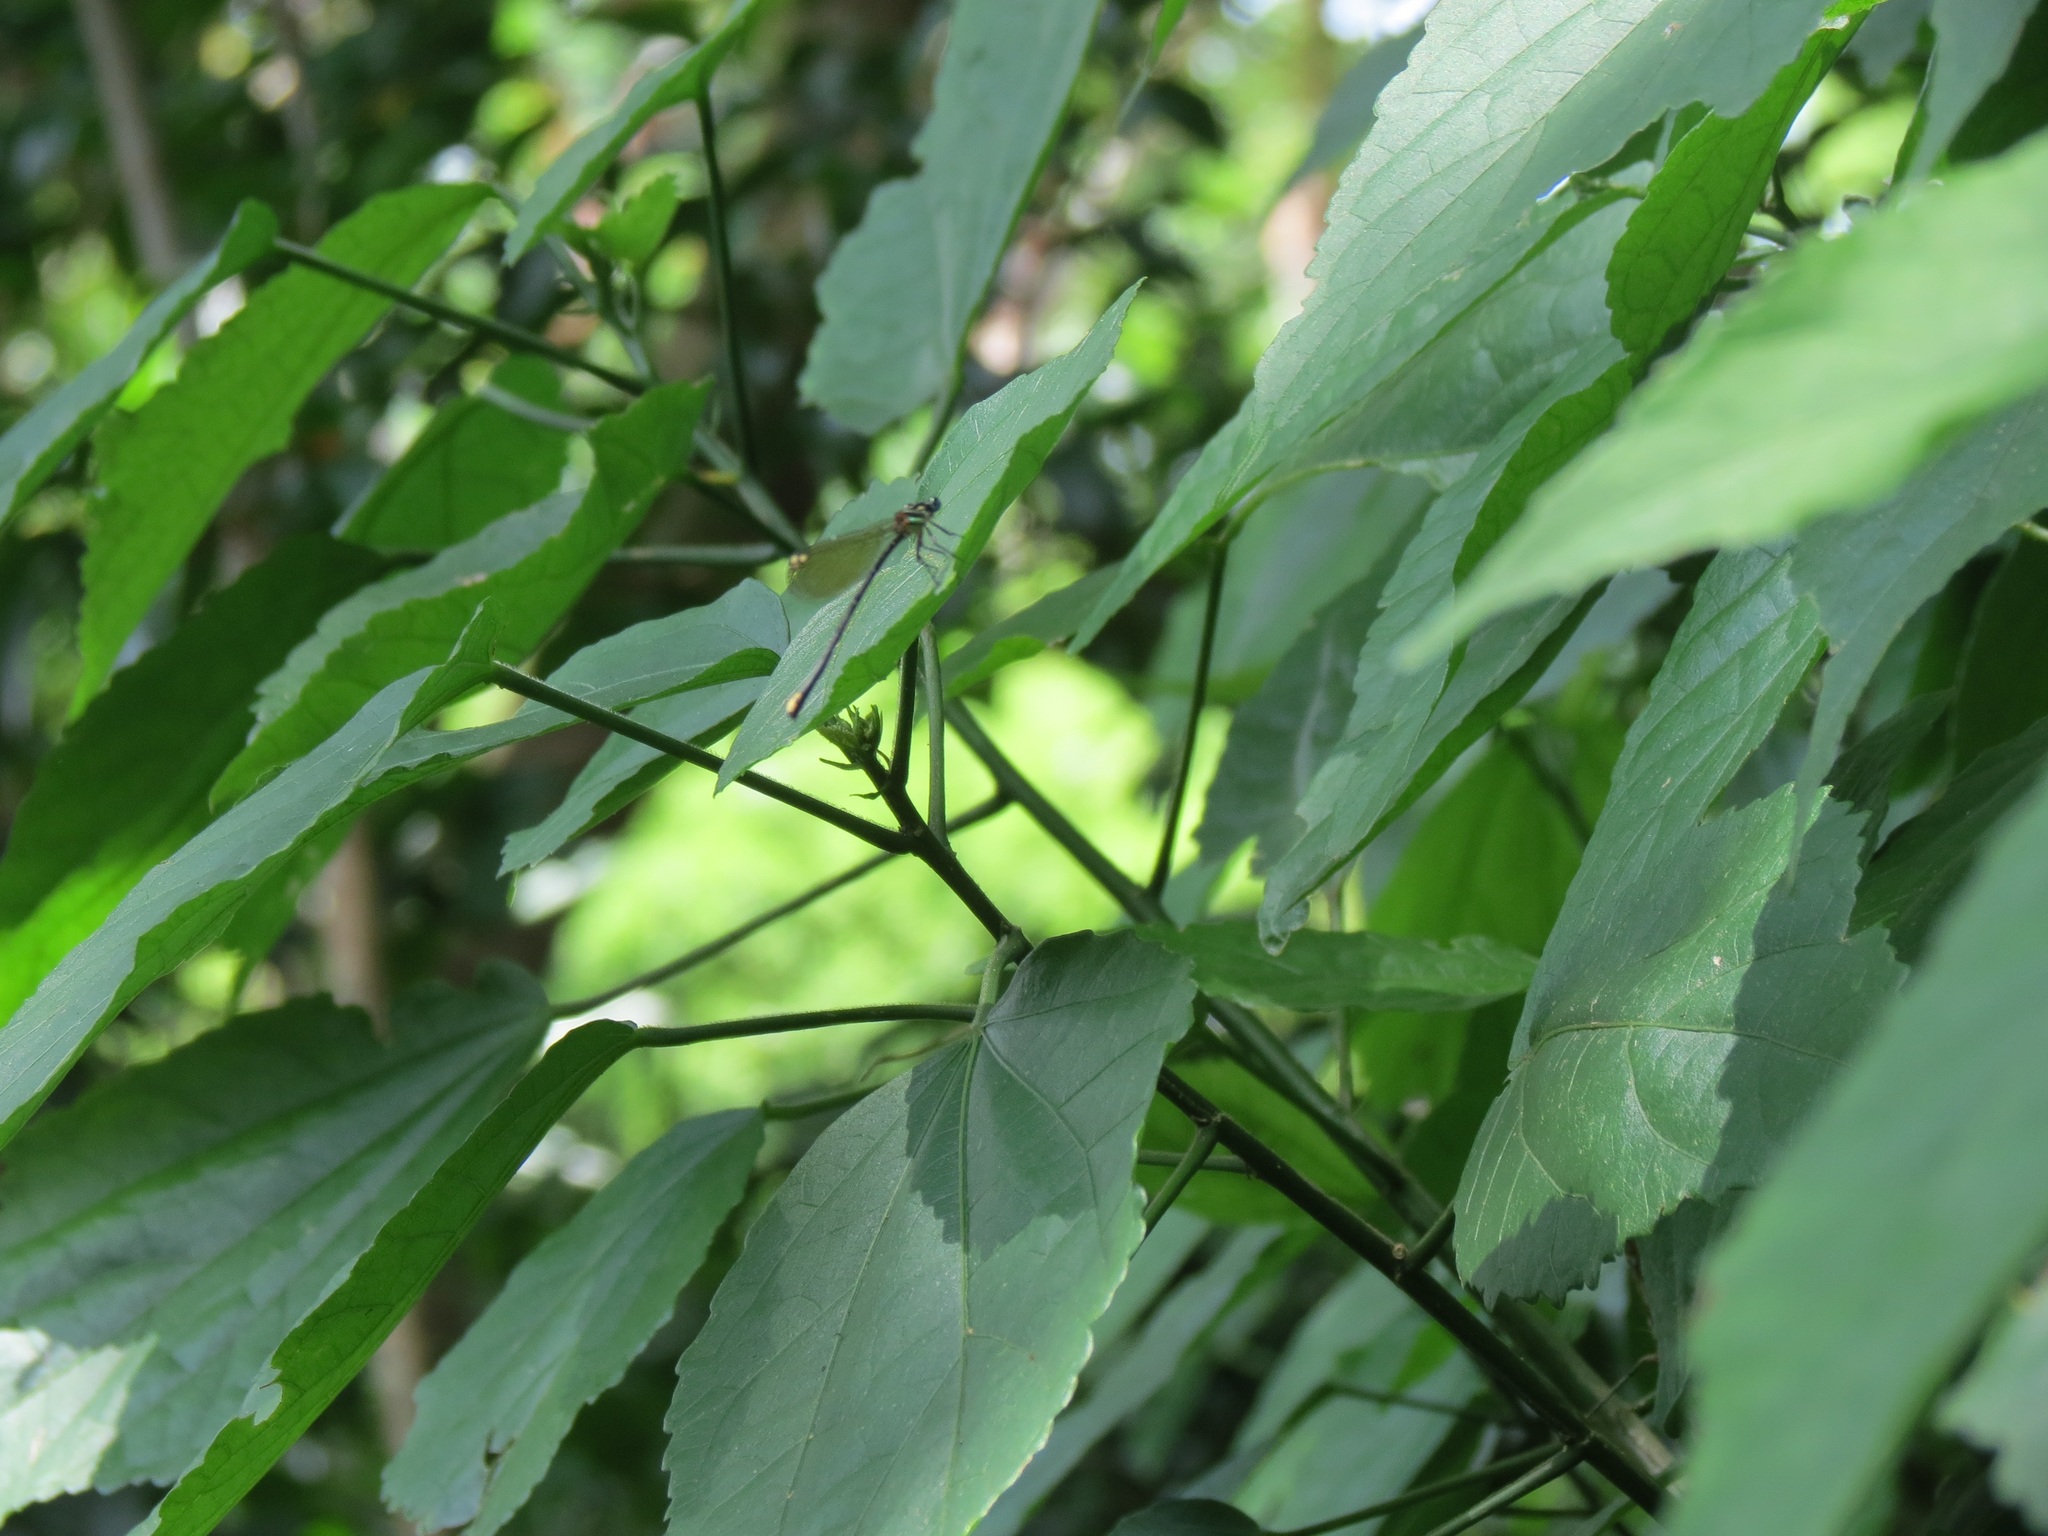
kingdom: Animalia
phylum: Arthropoda
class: Insecta
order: Odonata
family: Platycnemididae
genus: Allocnemis
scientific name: Allocnemis leucosticta
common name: Goldtail
